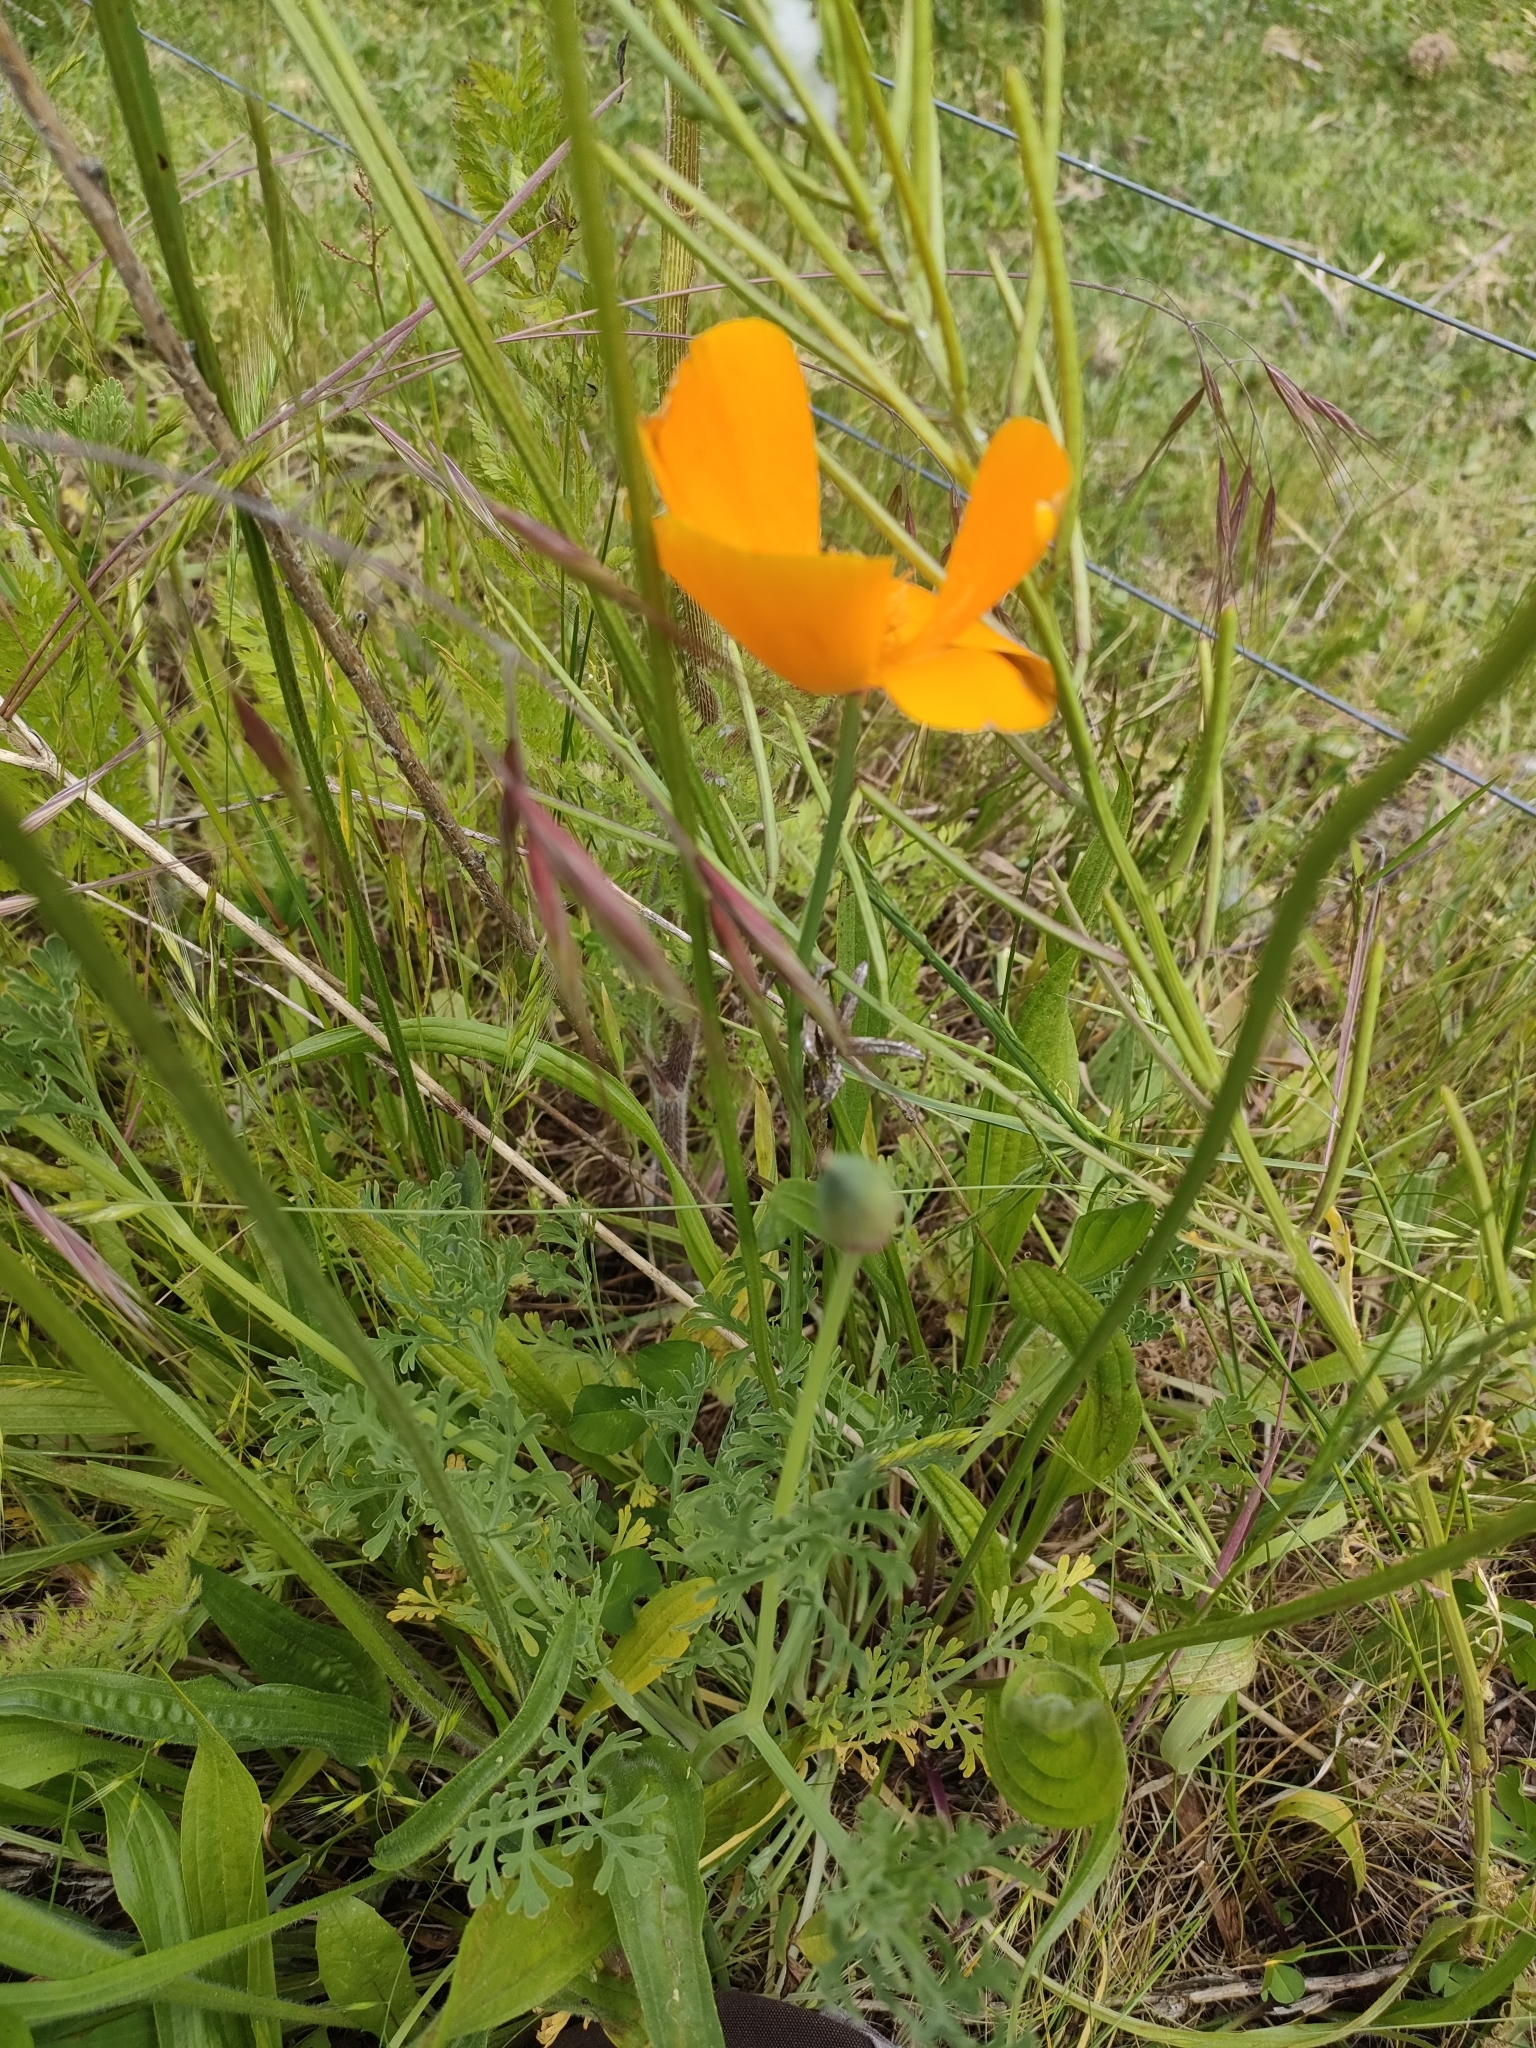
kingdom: Plantae
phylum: Tracheophyta
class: Magnoliopsida
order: Ranunculales
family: Papaveraceae
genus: Eschscholzia
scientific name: Eschscholzia californica
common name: California poppy
